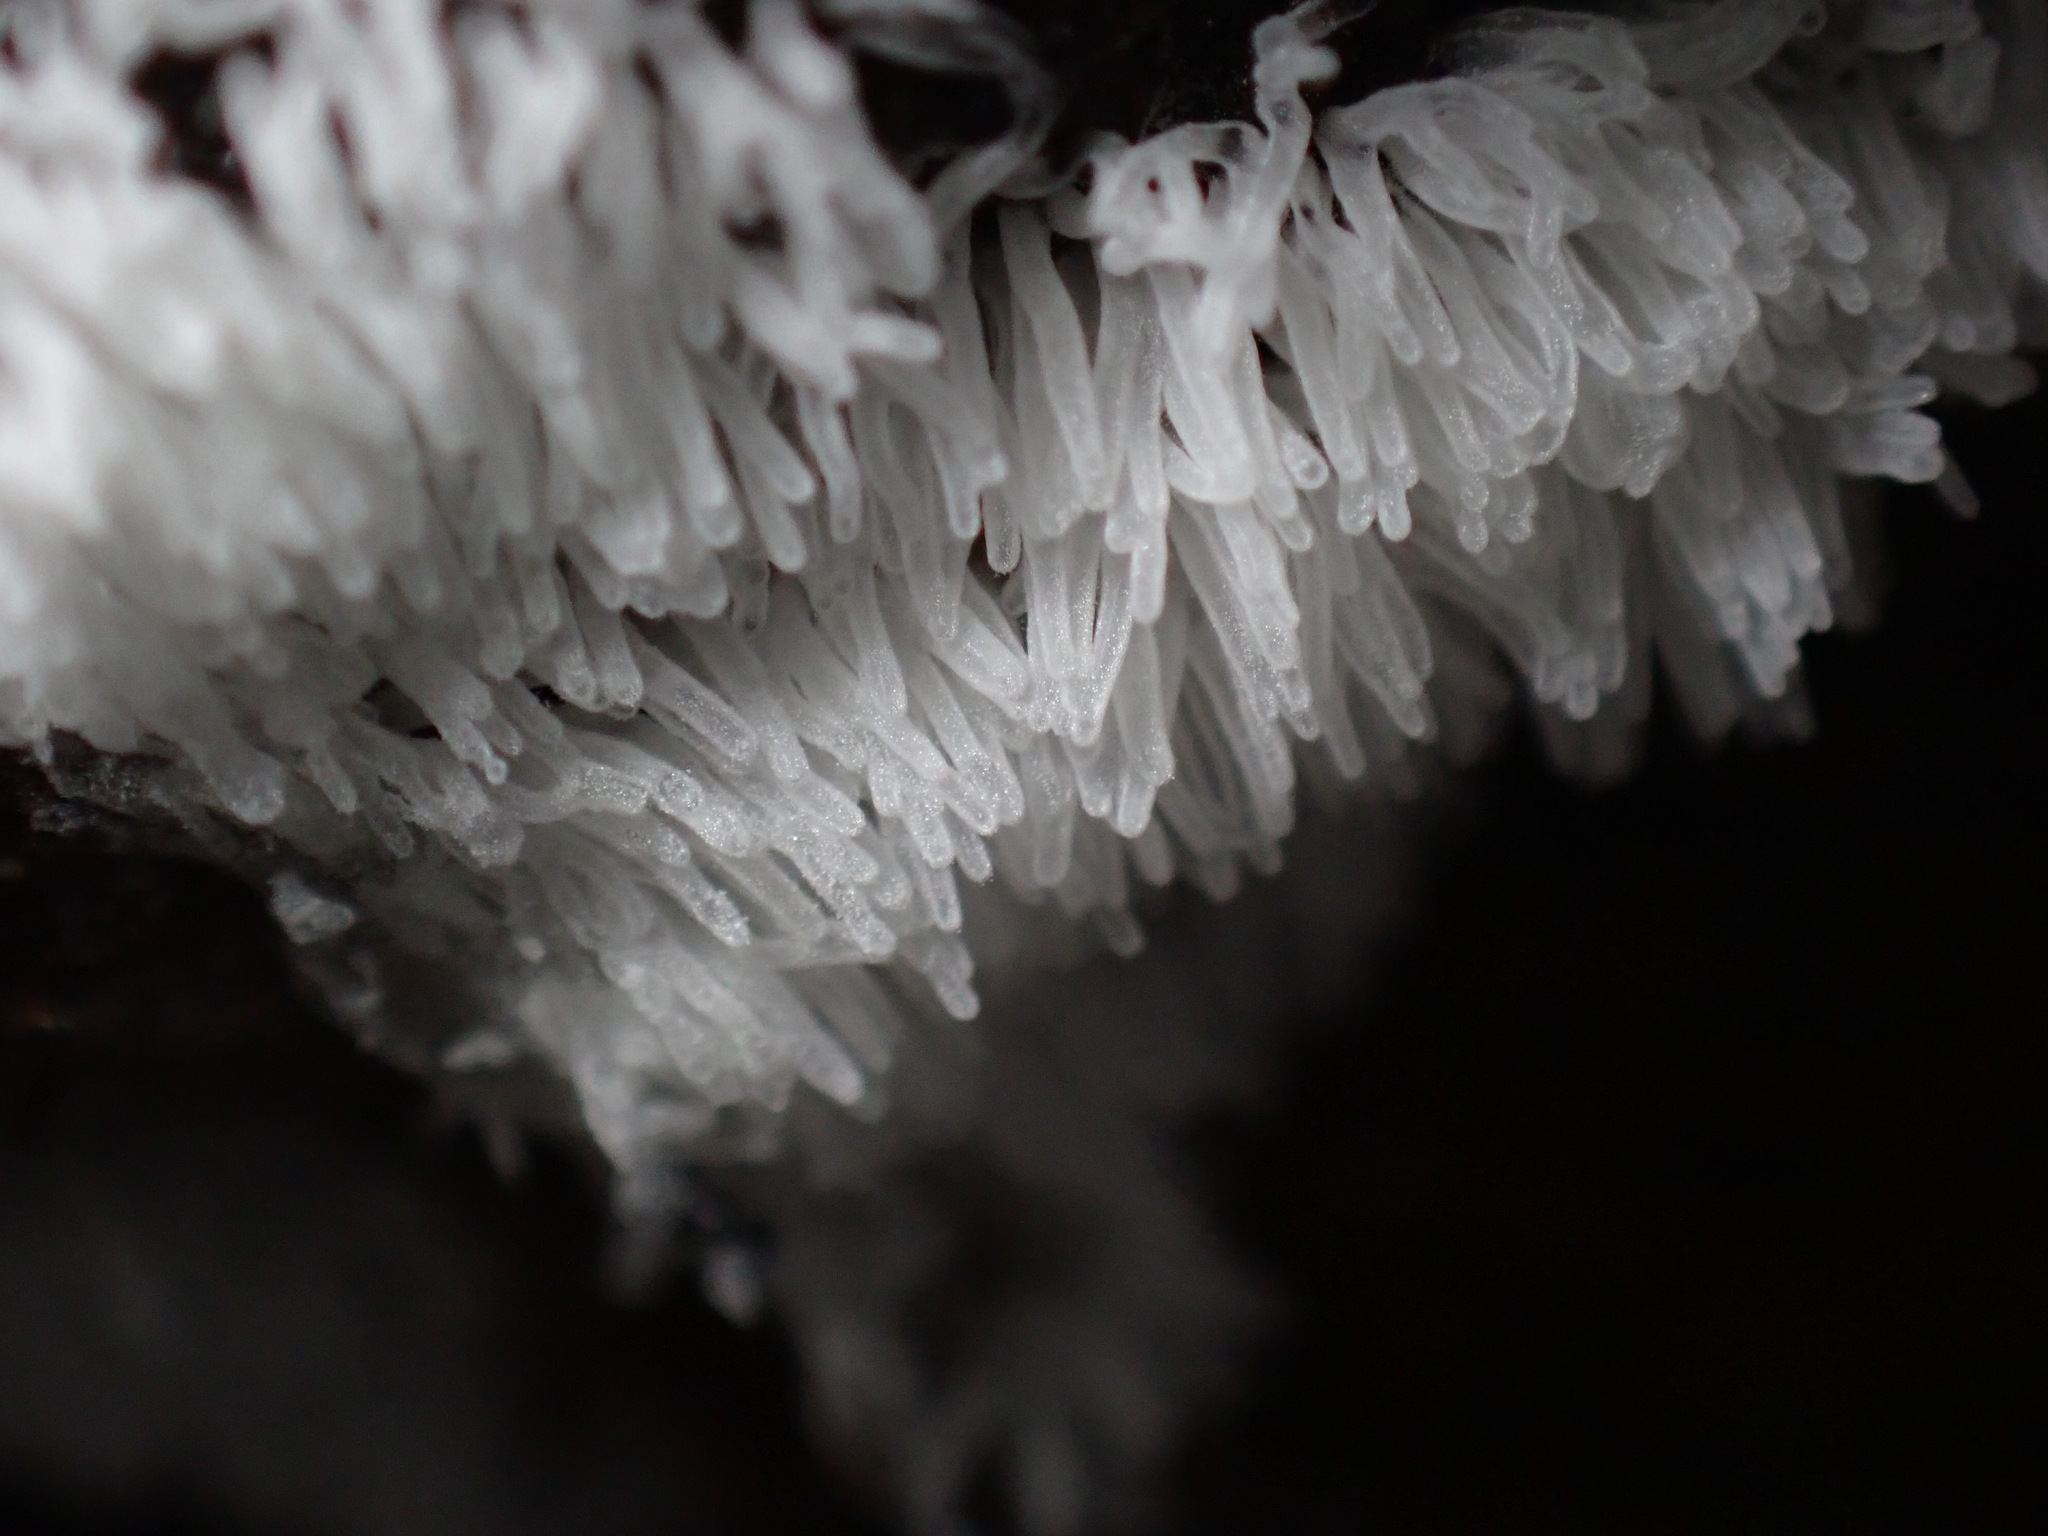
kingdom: Protozoa
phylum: Mycetozoa
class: Protosteliomycetes
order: Ceratiomyxales
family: Ceratiomyxaceae
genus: Ceratiomyxa
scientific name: Ceratiomyxa fruticulosa
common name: Honeycomb coral slime mold
